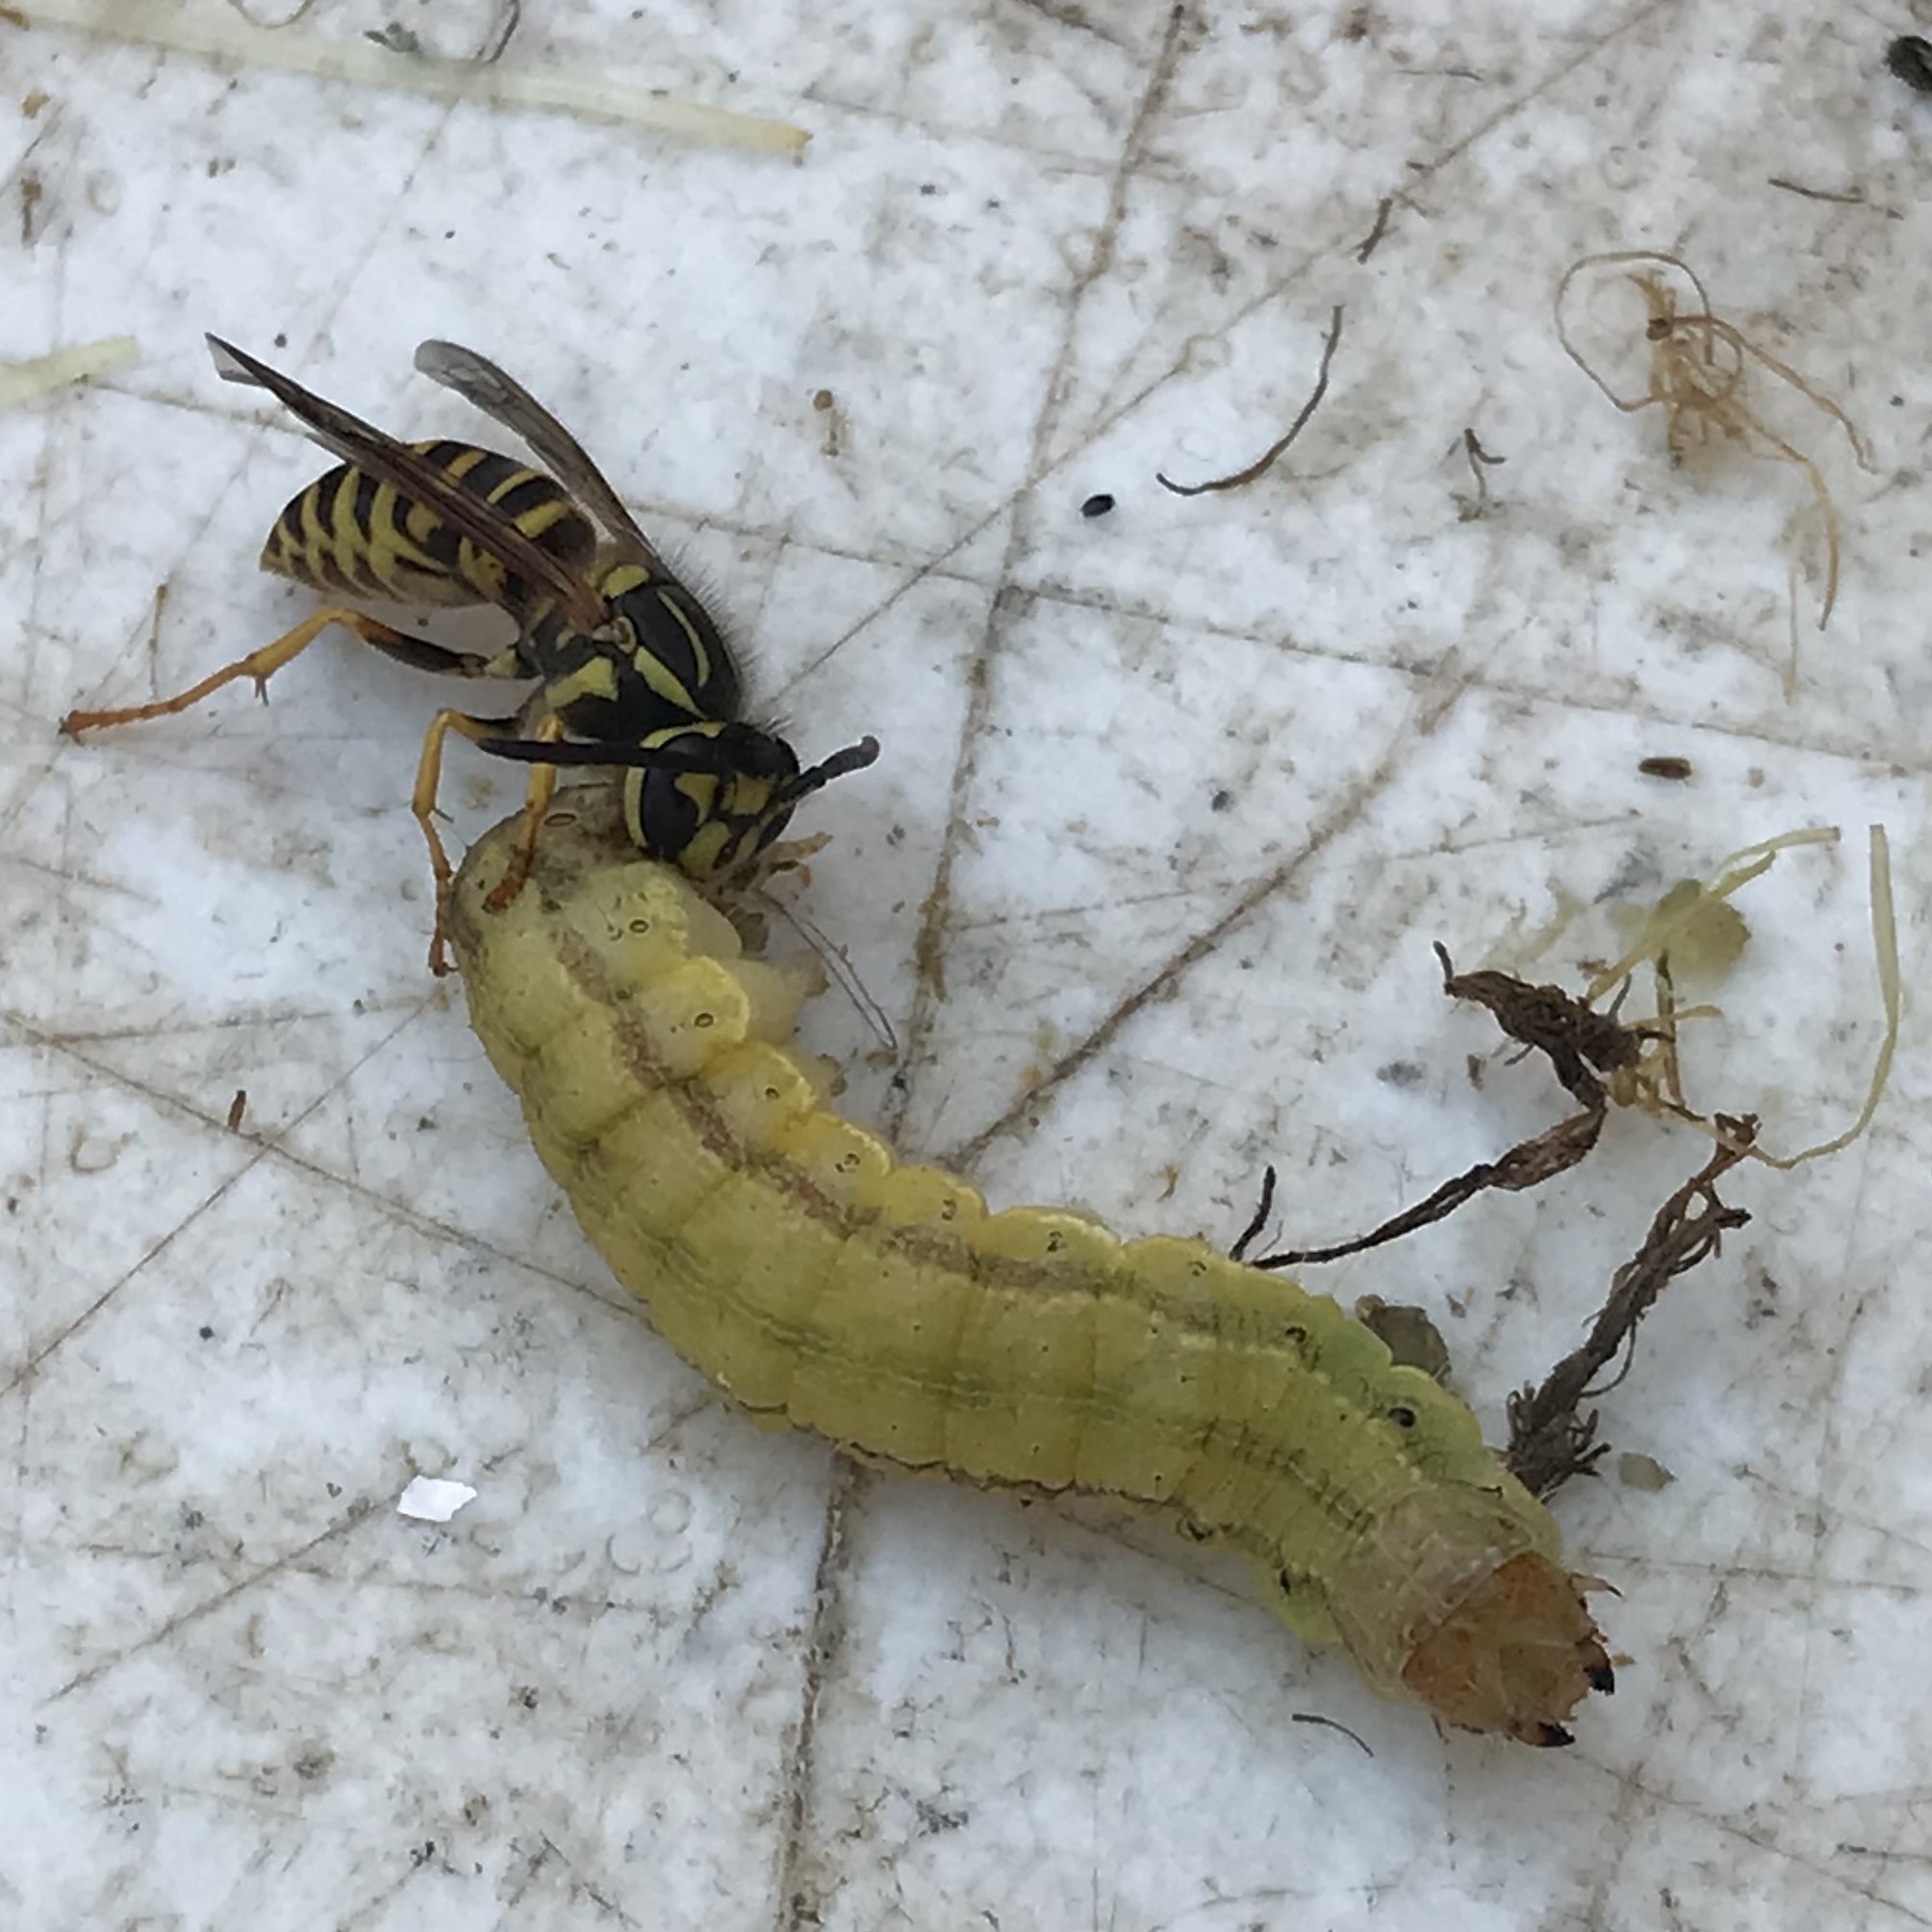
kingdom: Animalia
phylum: Arthropoda
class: Insecta
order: Hymenoptera
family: Vespidae
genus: Vespula
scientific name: Vespula squamosa
